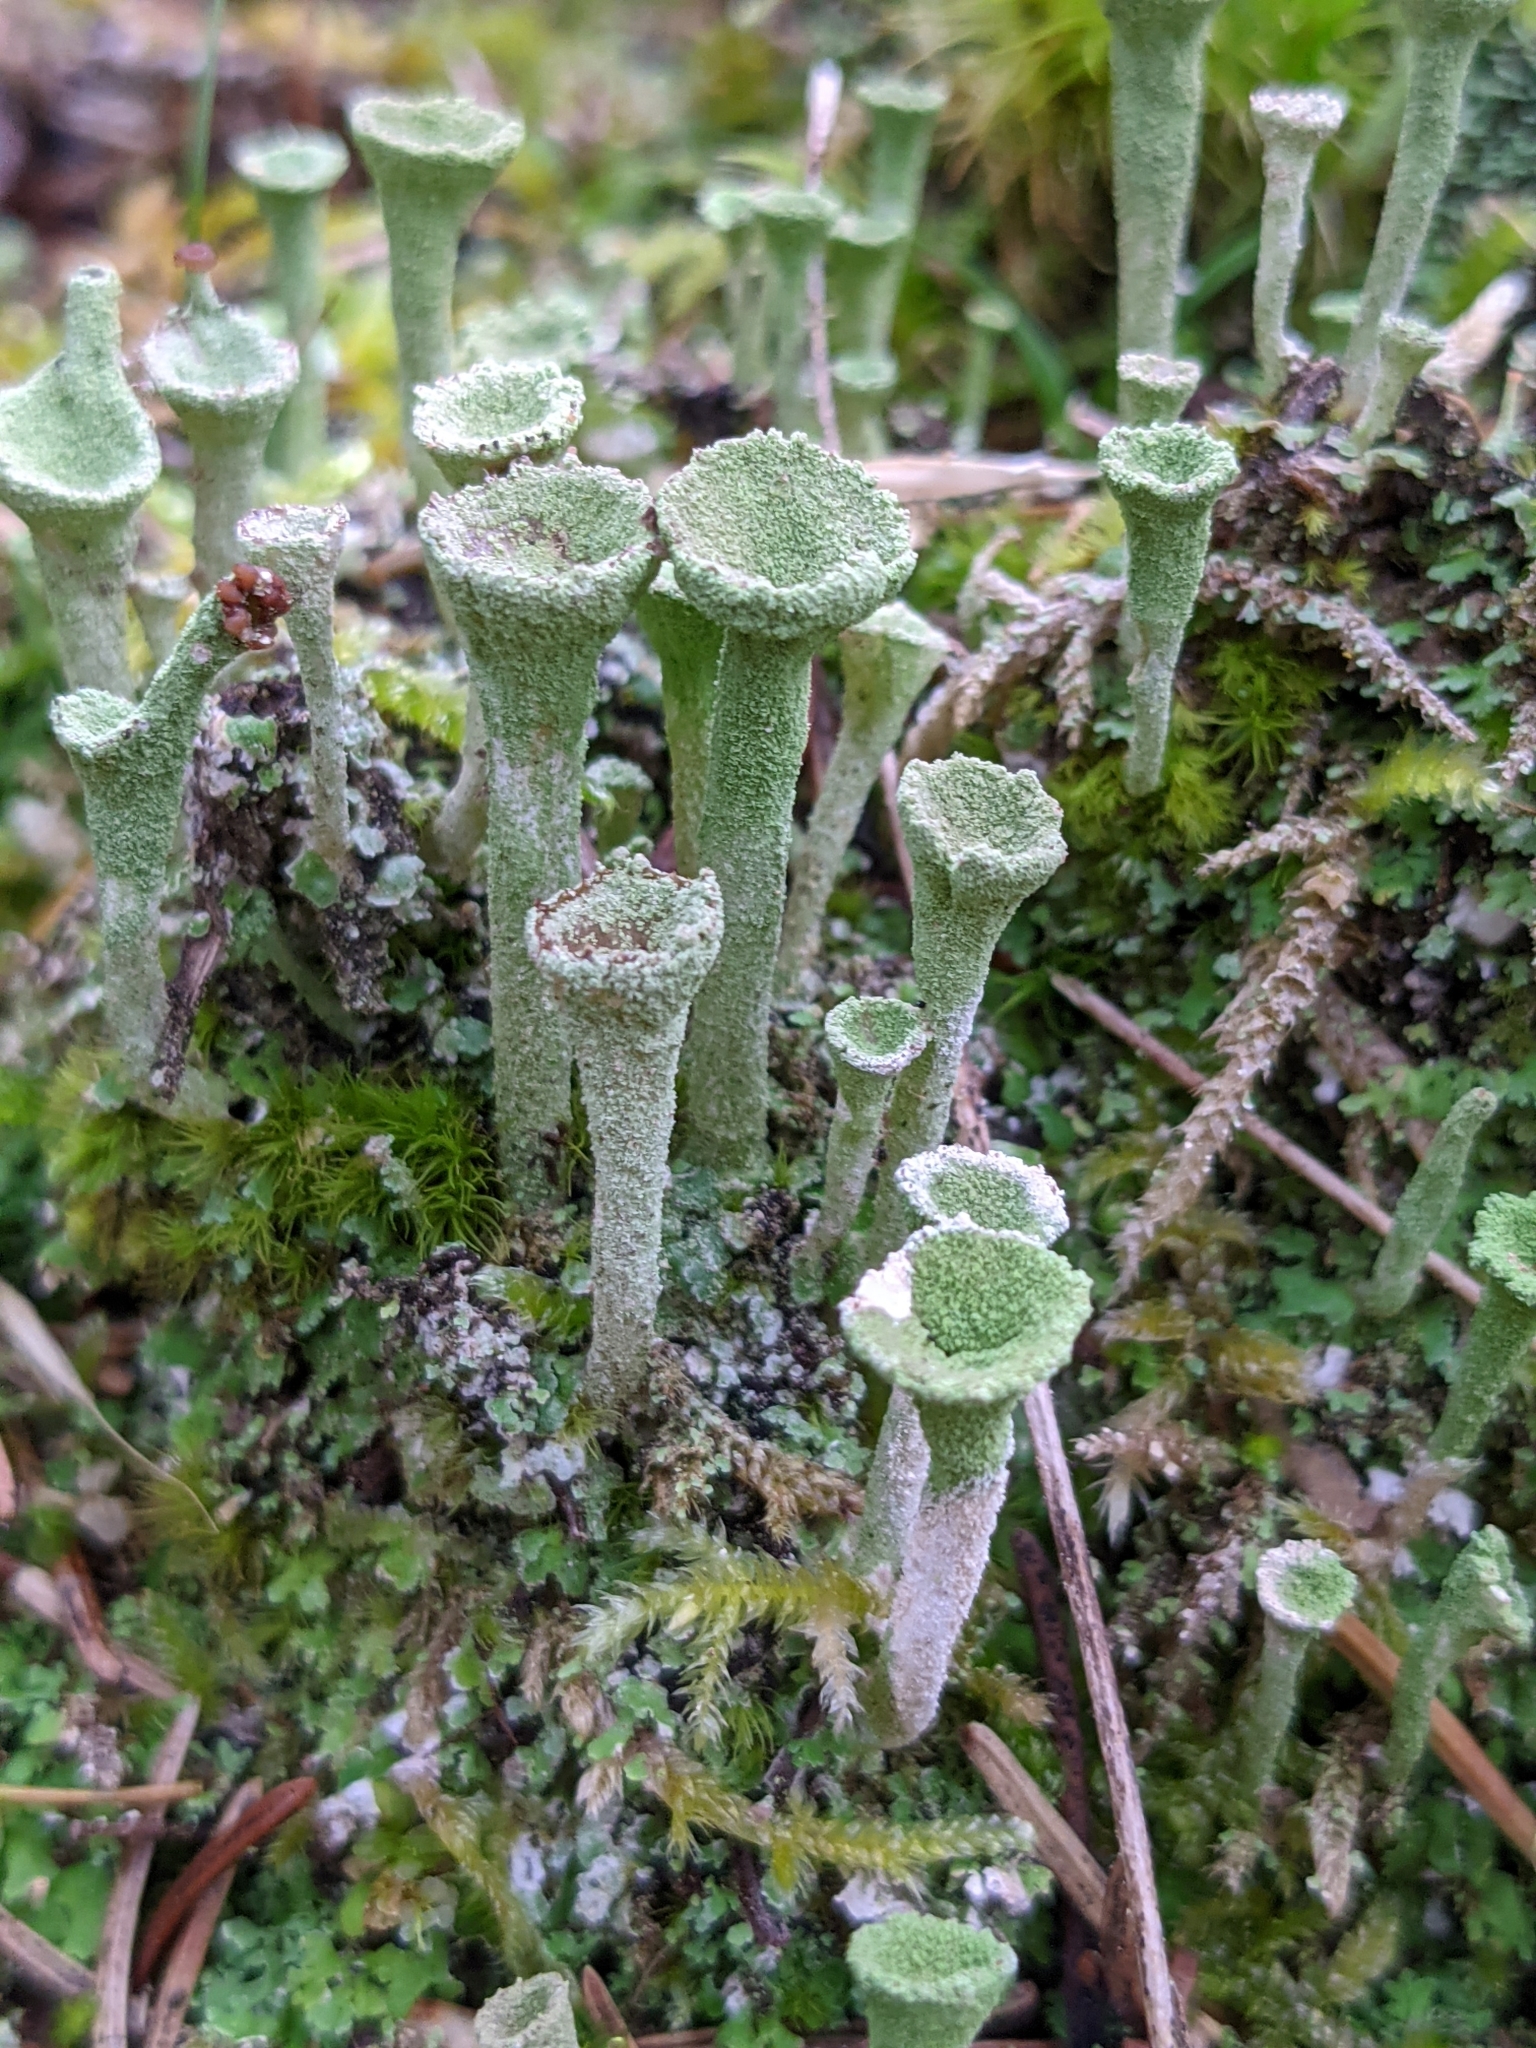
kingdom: Fungi
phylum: Ascomycota
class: Lecanoromycetes
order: Lecanorales
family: Cladoniaceae
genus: Cladonia
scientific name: Cladonia fimbriata
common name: Powdered trumpet lichen
